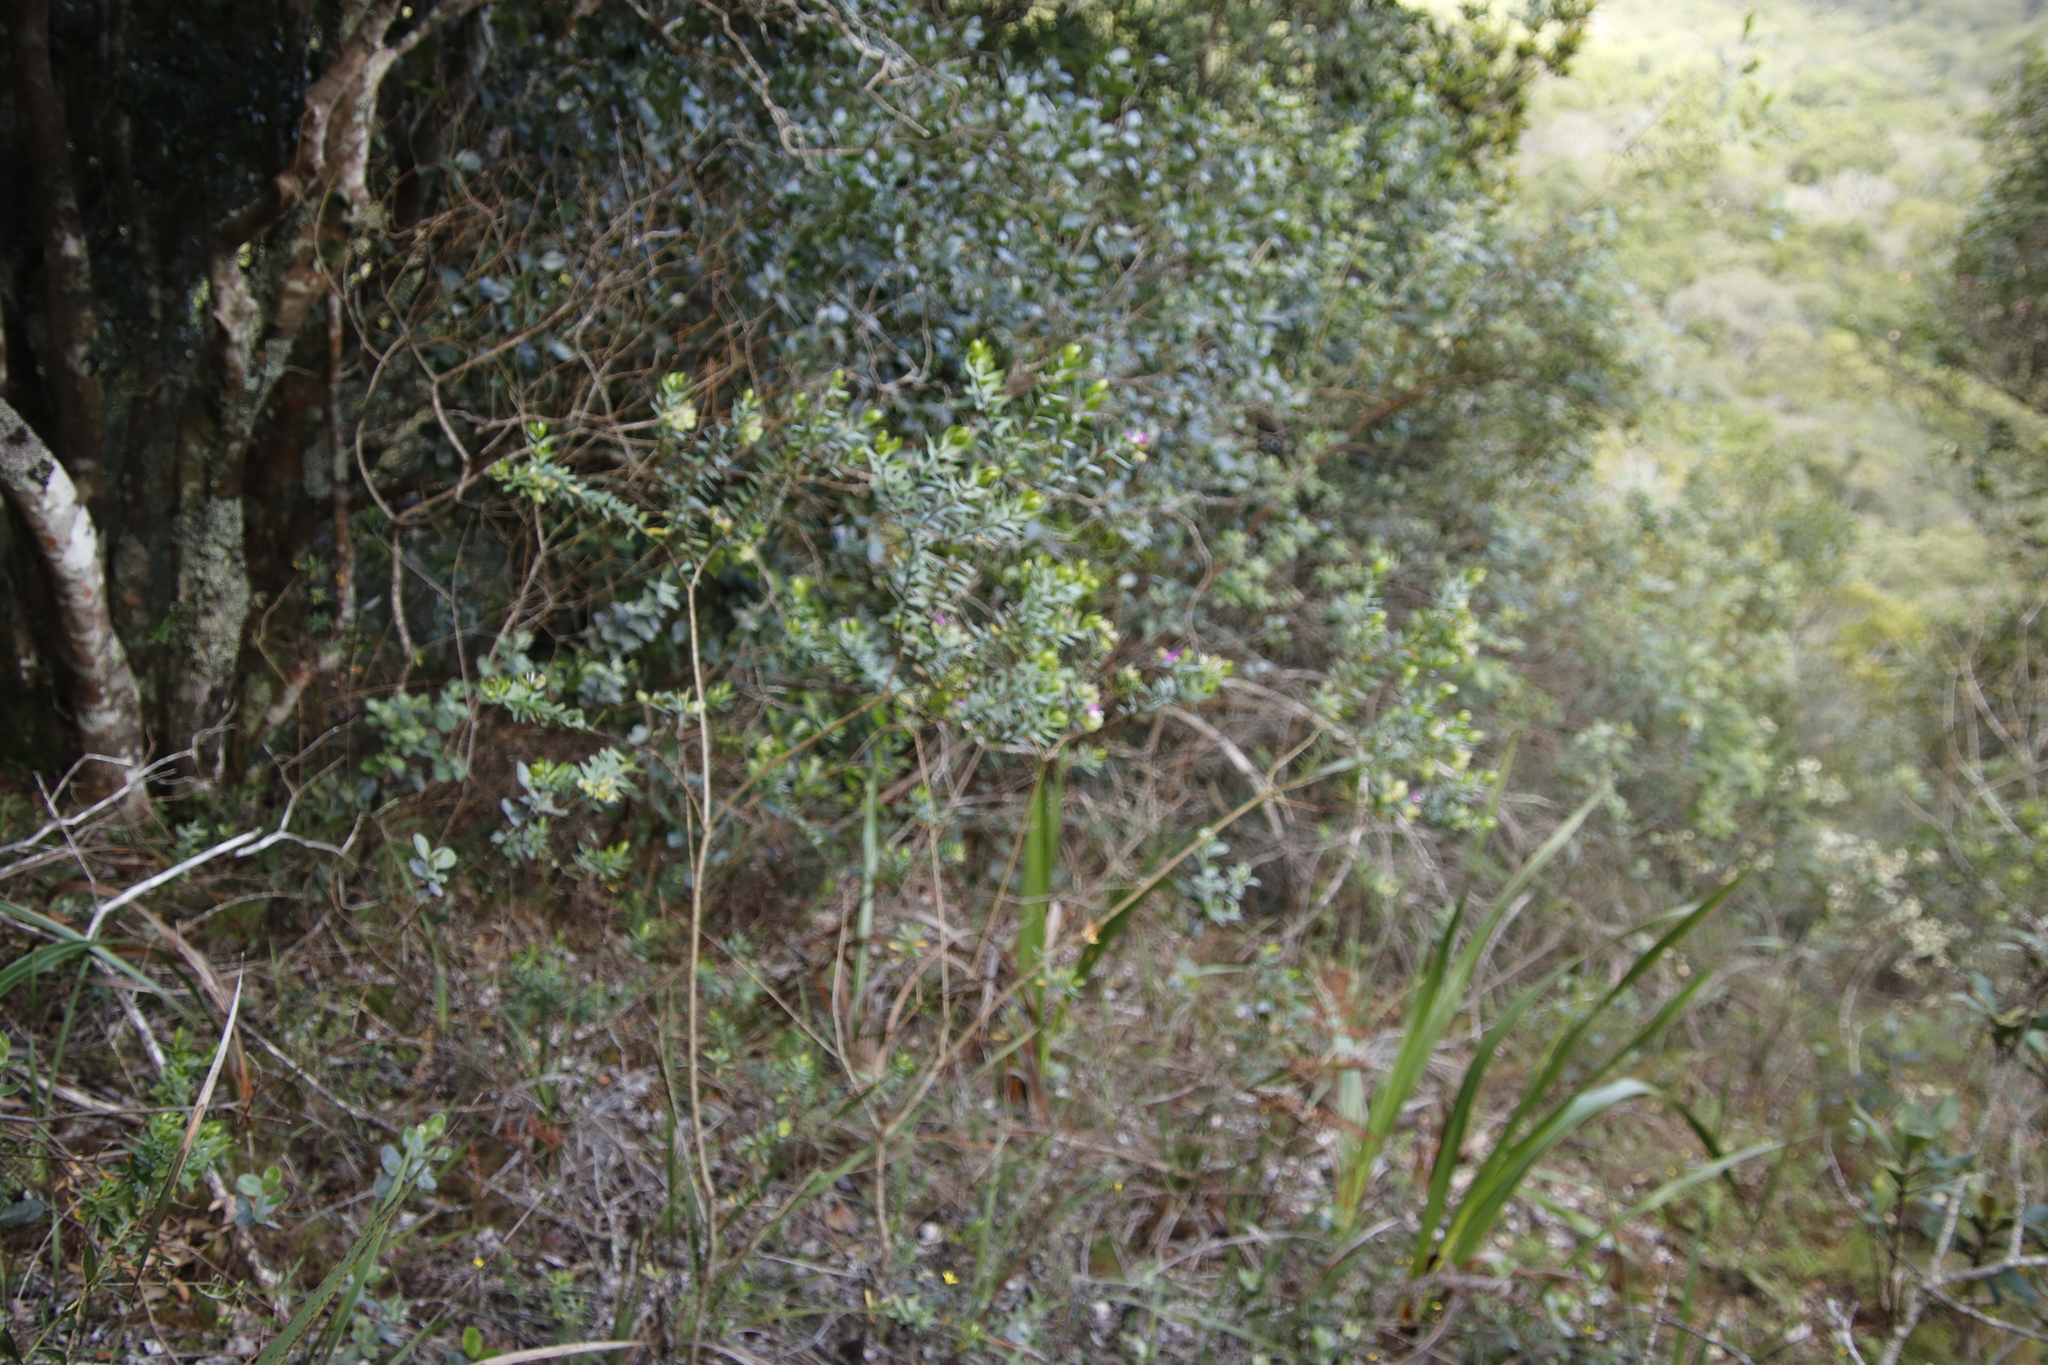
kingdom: Plantae
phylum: Tracheophyta
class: Magnoliopsida
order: Fabales
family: Polygalaceae
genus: Polygala
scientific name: Polygala myrtifolia
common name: Myrtle-leaf milkwort
